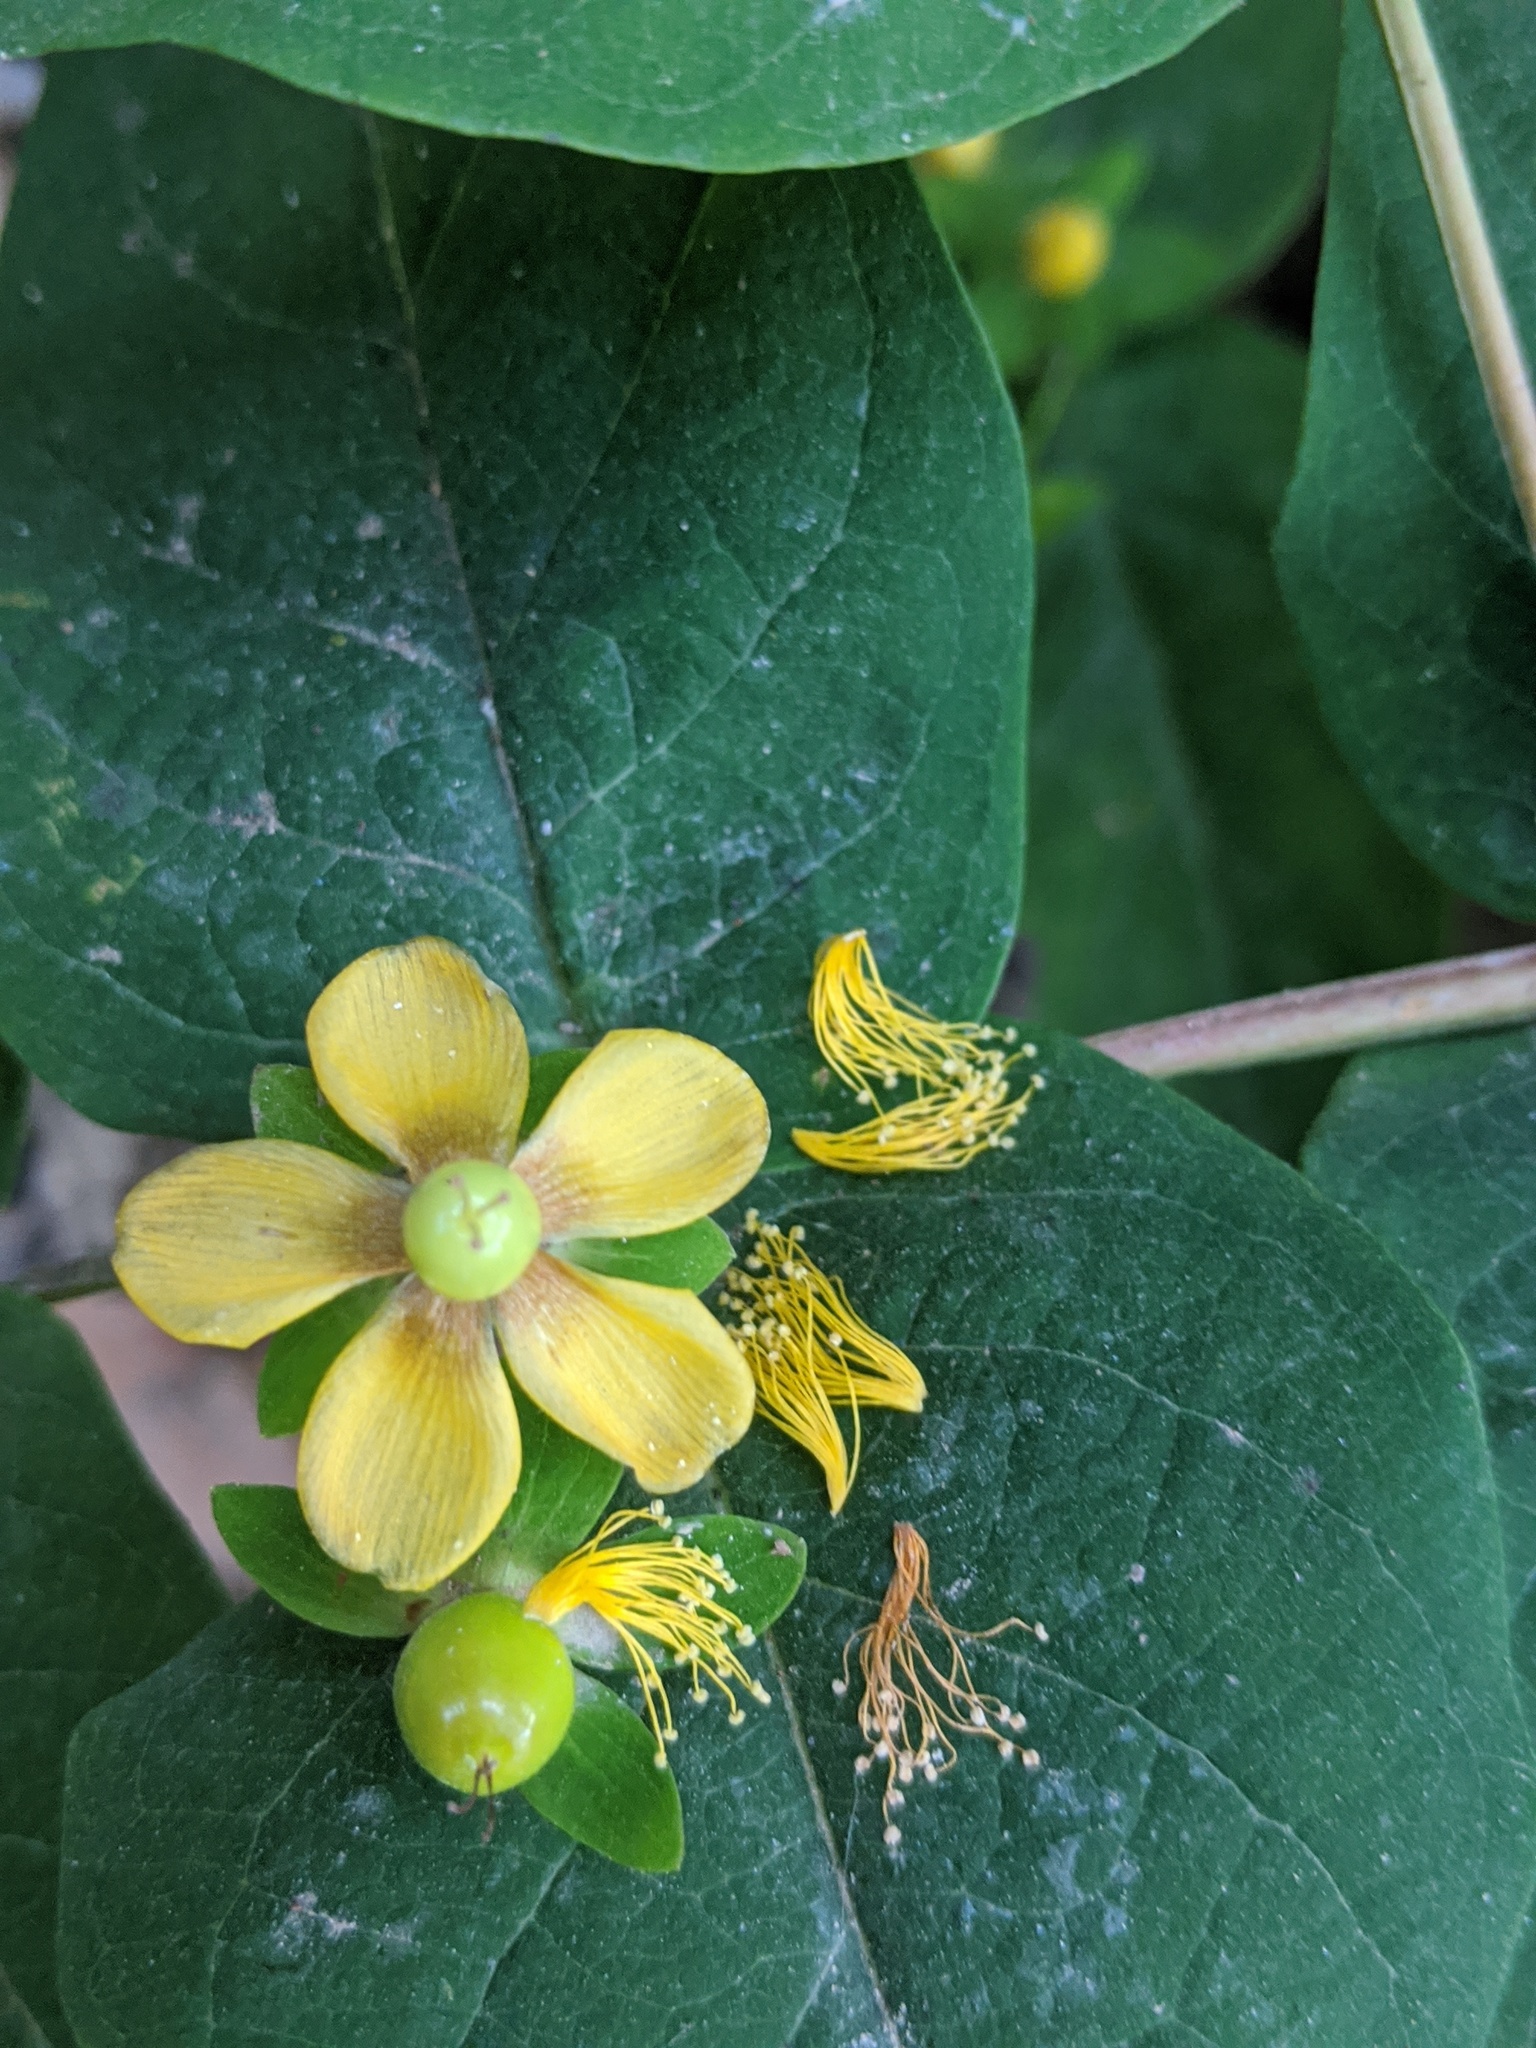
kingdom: Plantae
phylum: Tracheophyta
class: Magnoliopsida
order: Malpighiales
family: Hypericaceae
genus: Hypericum
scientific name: Hypericum calycinum
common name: Rose-of-sharon
